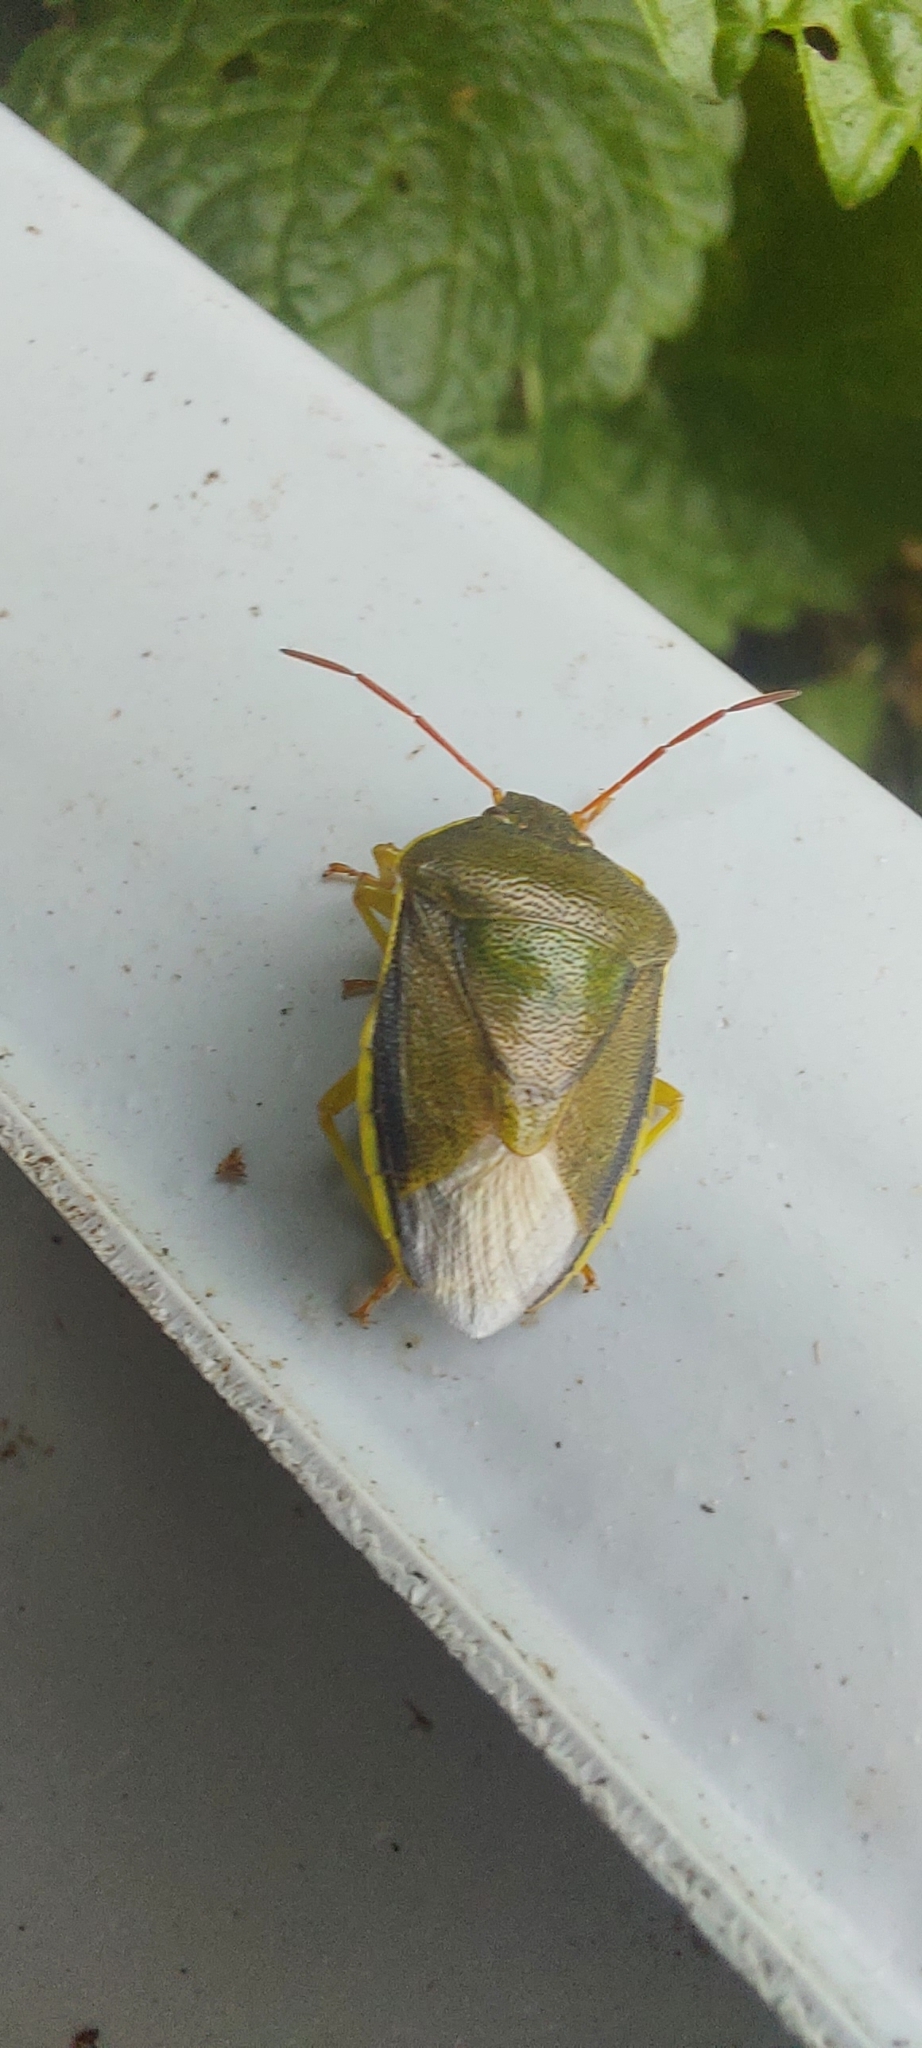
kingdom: Animalia
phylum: Arthropoda
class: Insecta
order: Hemiptera
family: Pentatomidae
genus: Piezodorus
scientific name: Piezodorus lituratus
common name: Stink bug
